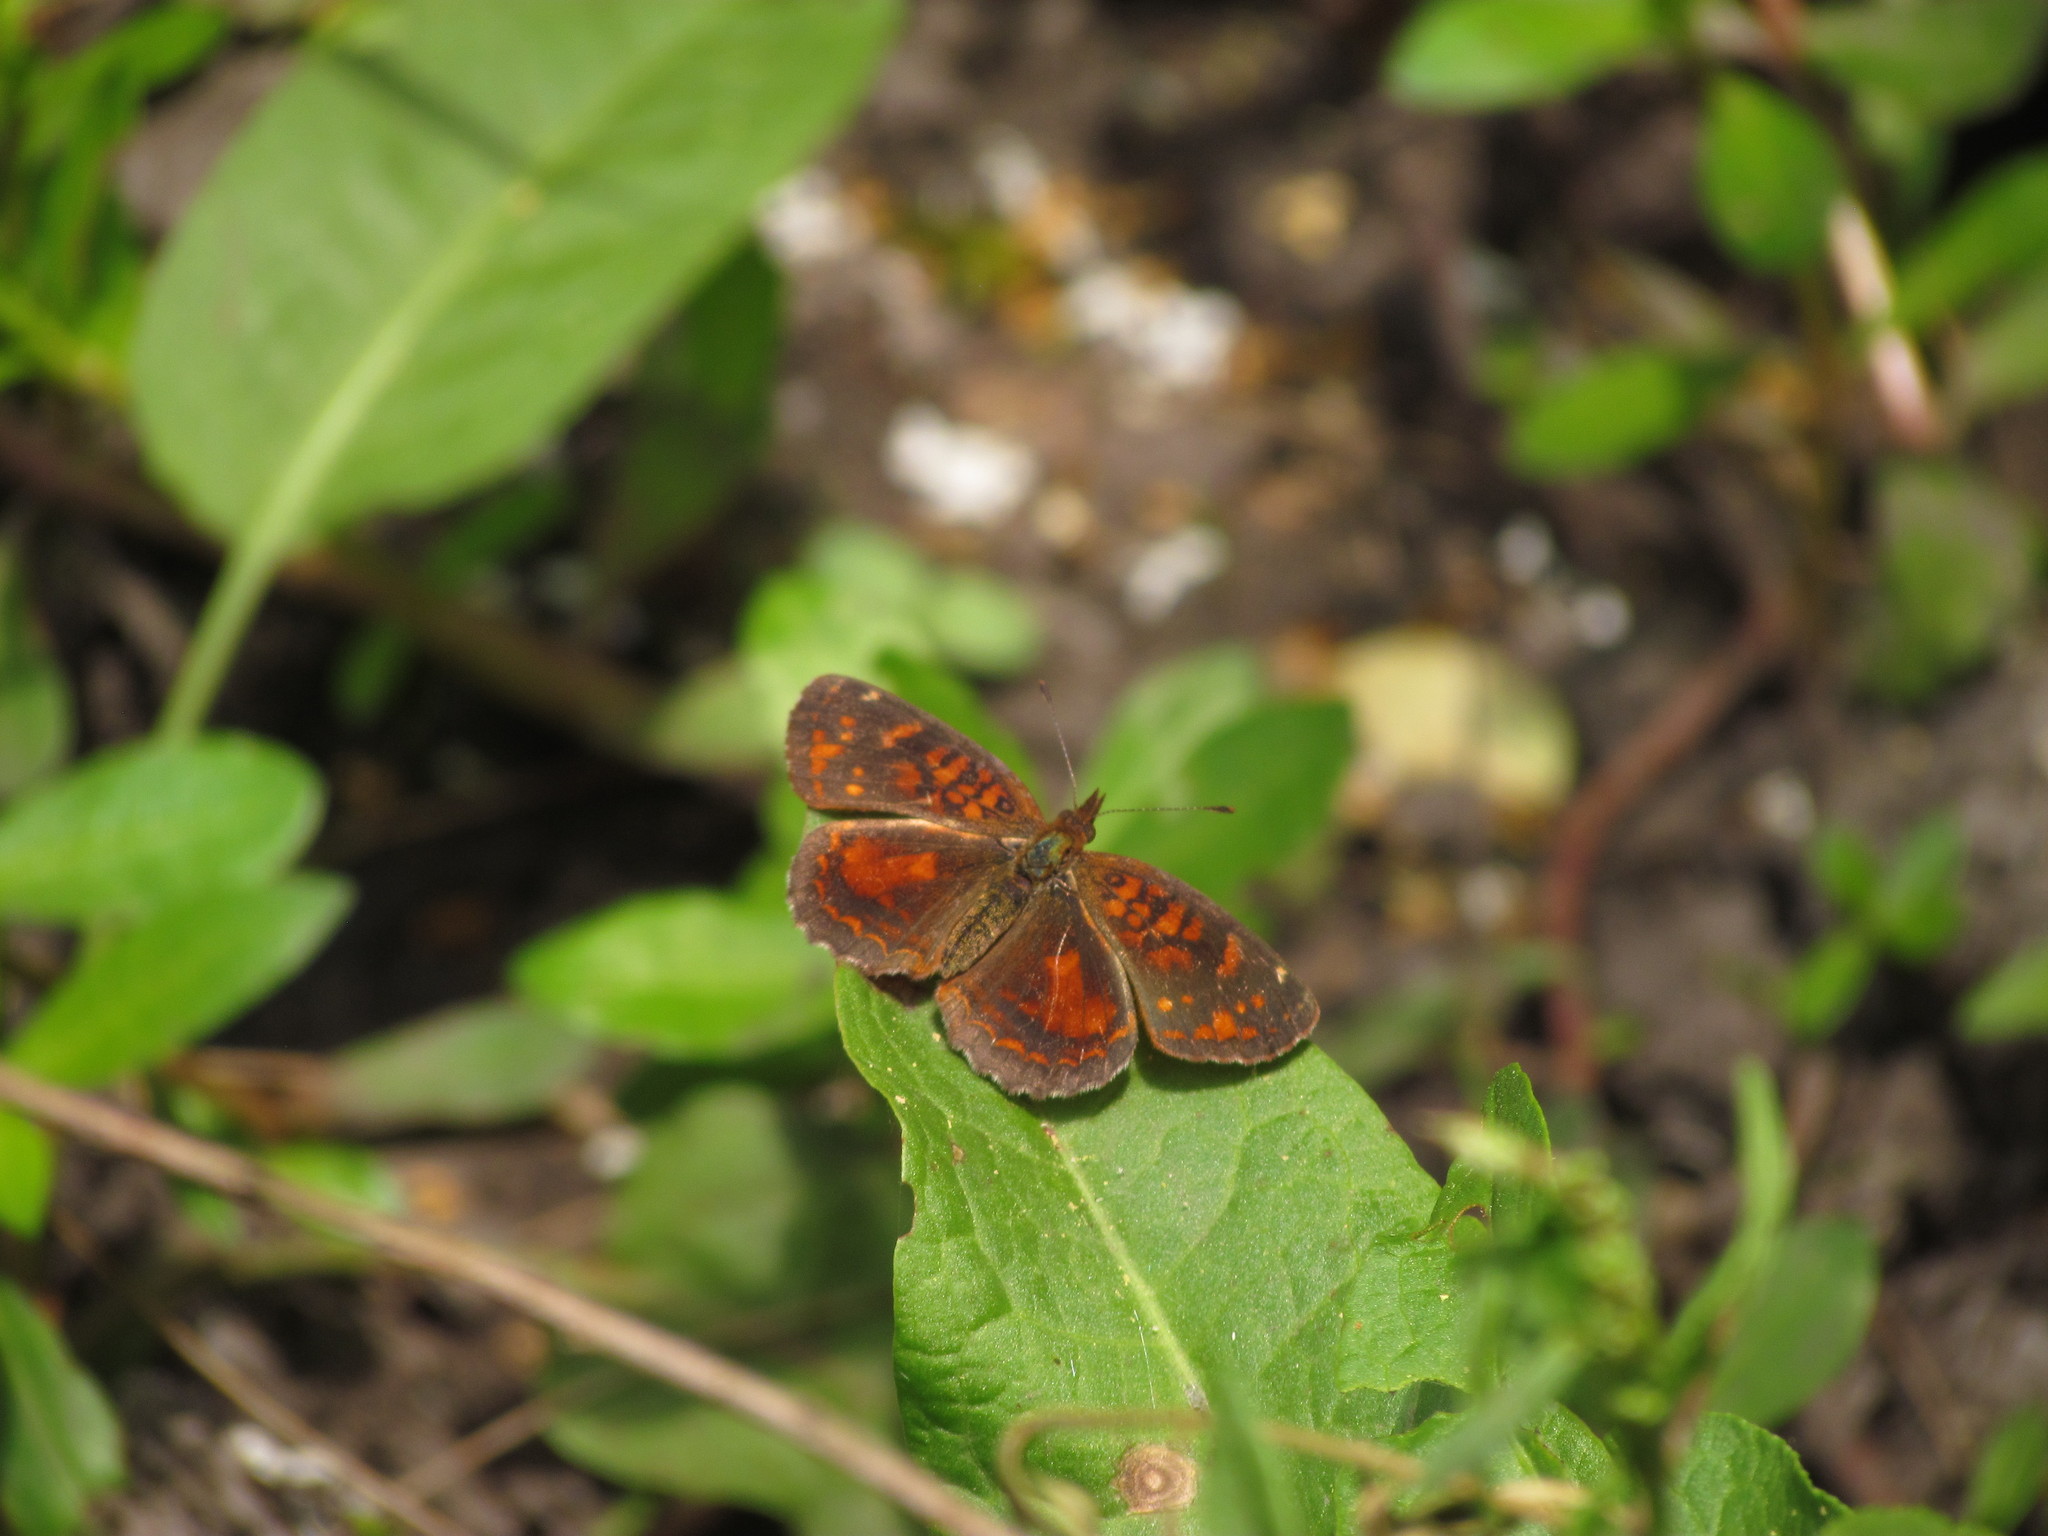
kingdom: Animalia
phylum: Arthropoda
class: Insecta
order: Lepidoptera
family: Nymphalidae
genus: Ortilia
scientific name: Ortilia velica
